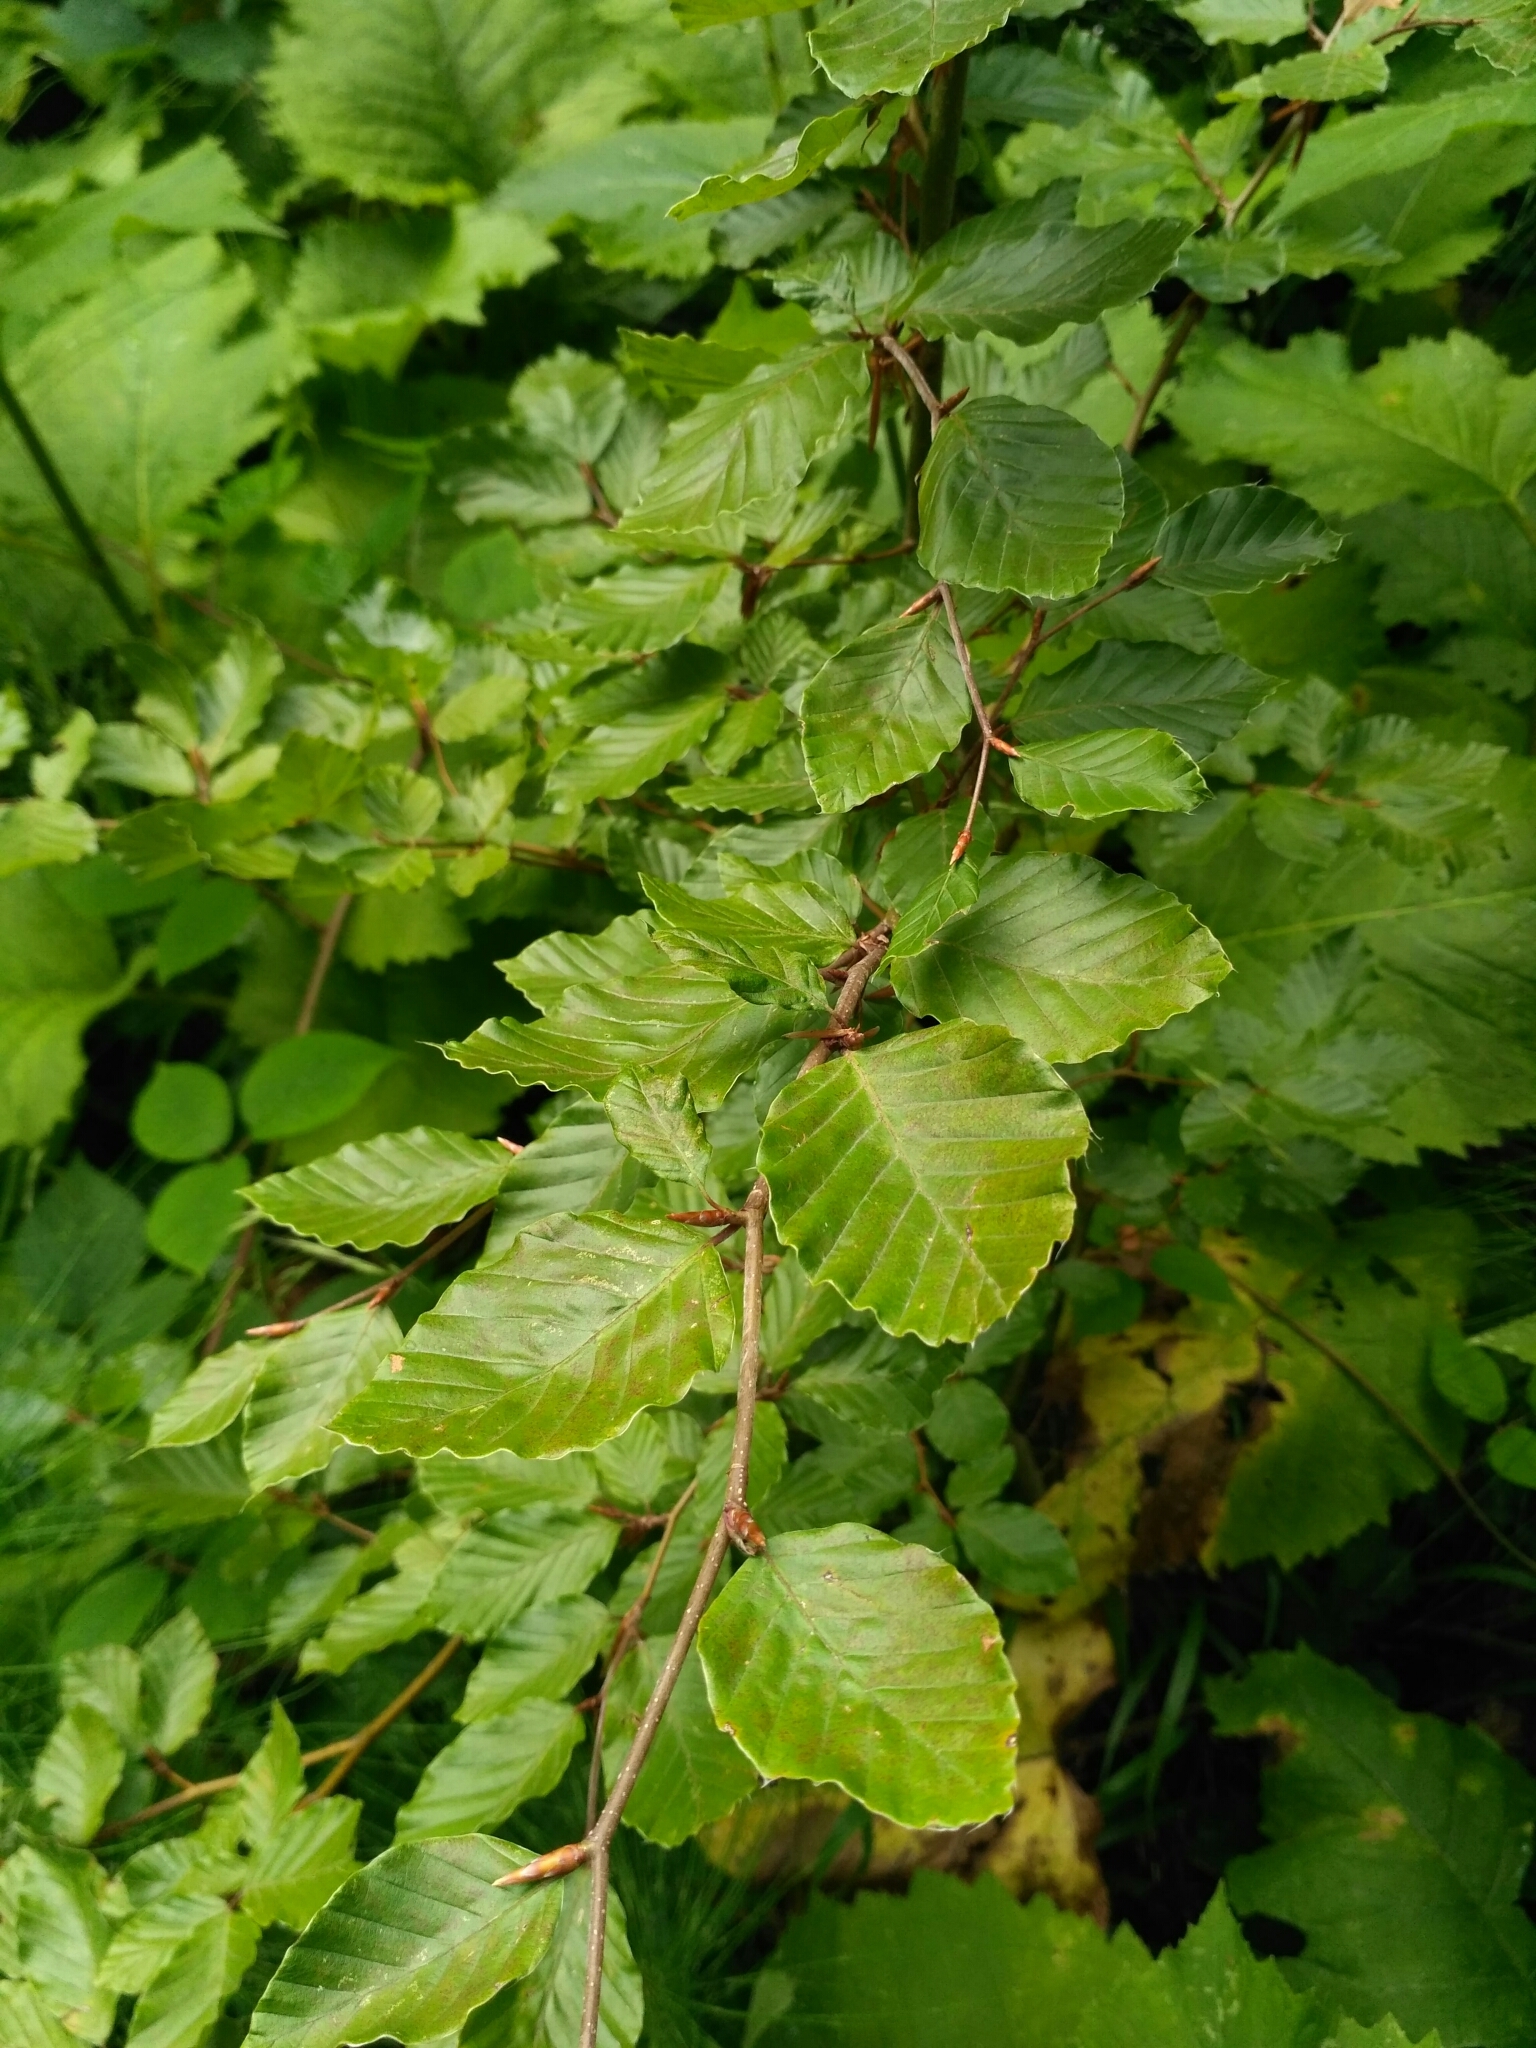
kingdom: Plantae
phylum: Tracheophyta
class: Magnoliopsida
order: Fagales
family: Fagaceae
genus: Fagus
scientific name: Fagus sylvatica
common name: Beech
